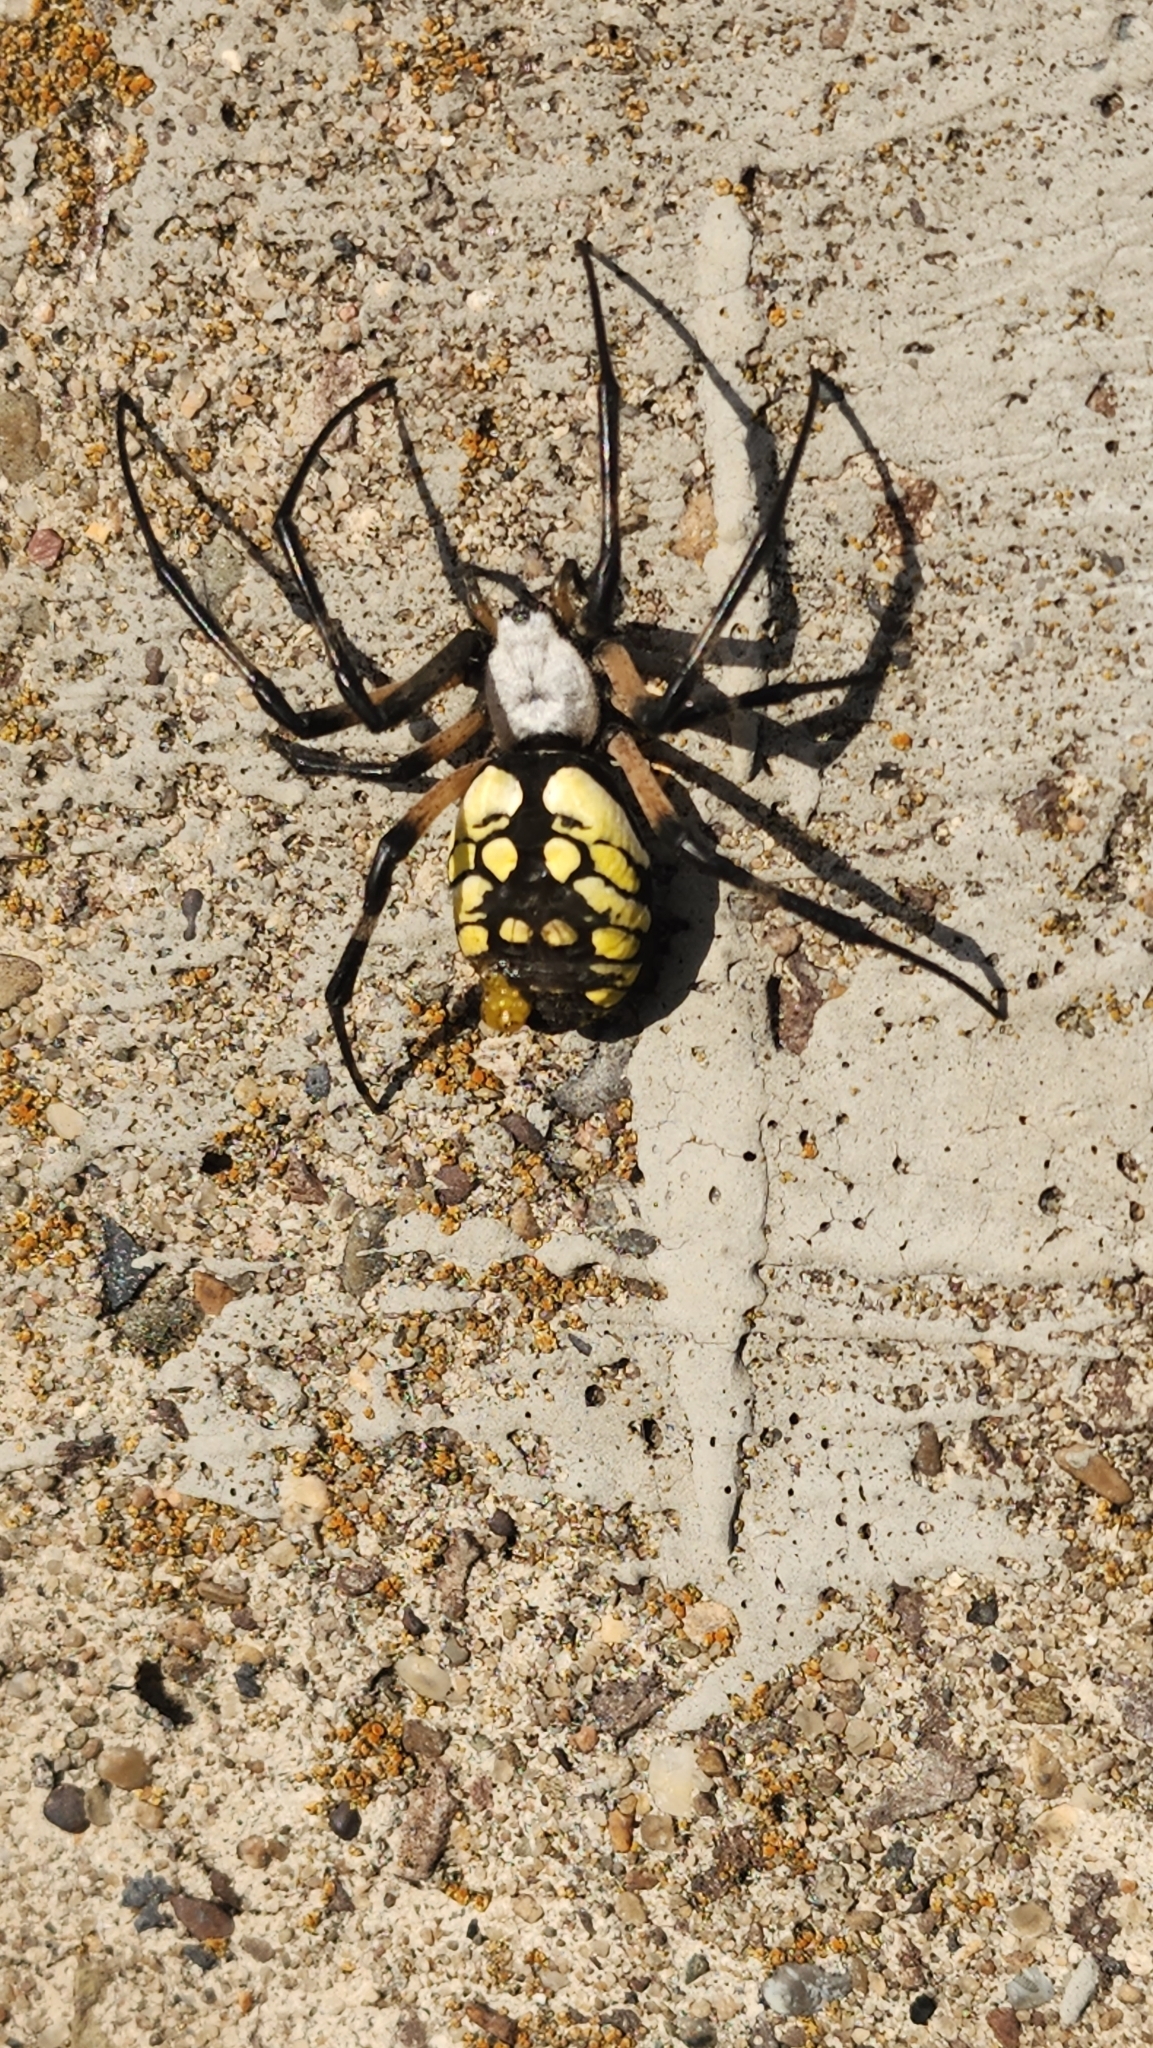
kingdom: Animalia
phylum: Arthropoda
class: Arachnida
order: Araneae
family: Araneidae
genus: Argiope
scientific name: Argiope aurantia
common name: Orb weavers
